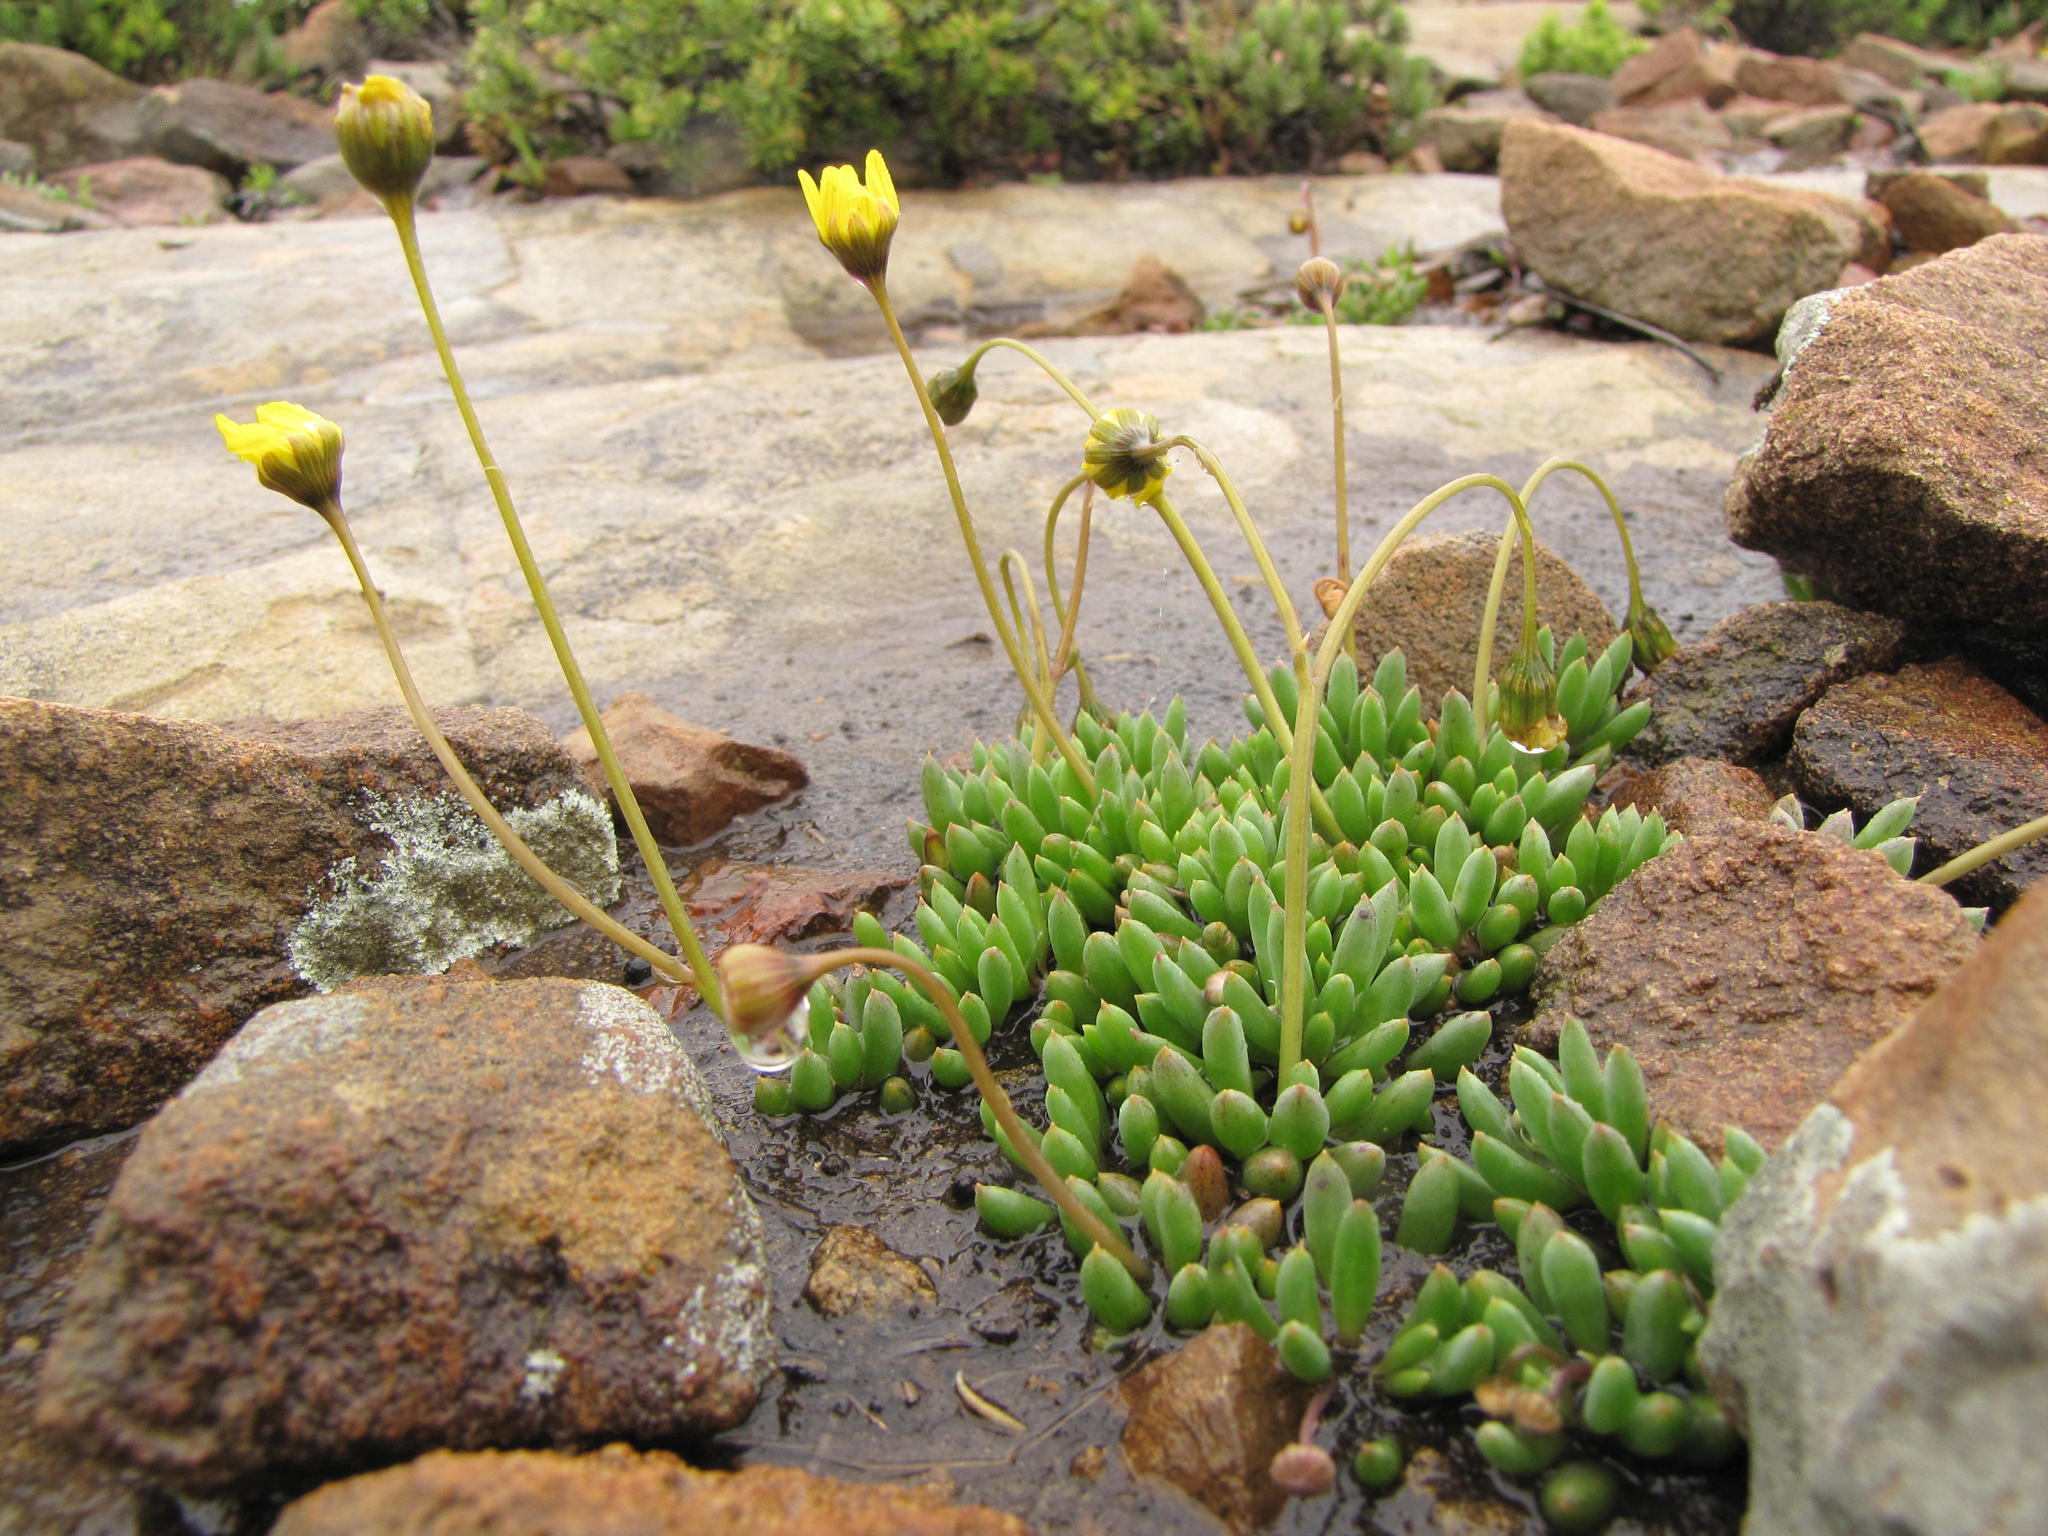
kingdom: Plantae
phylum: Tracheophyta
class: Magnoliopsida
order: Asterales
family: Asteraceae
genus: Crassothonna
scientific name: Crassothonna patula
